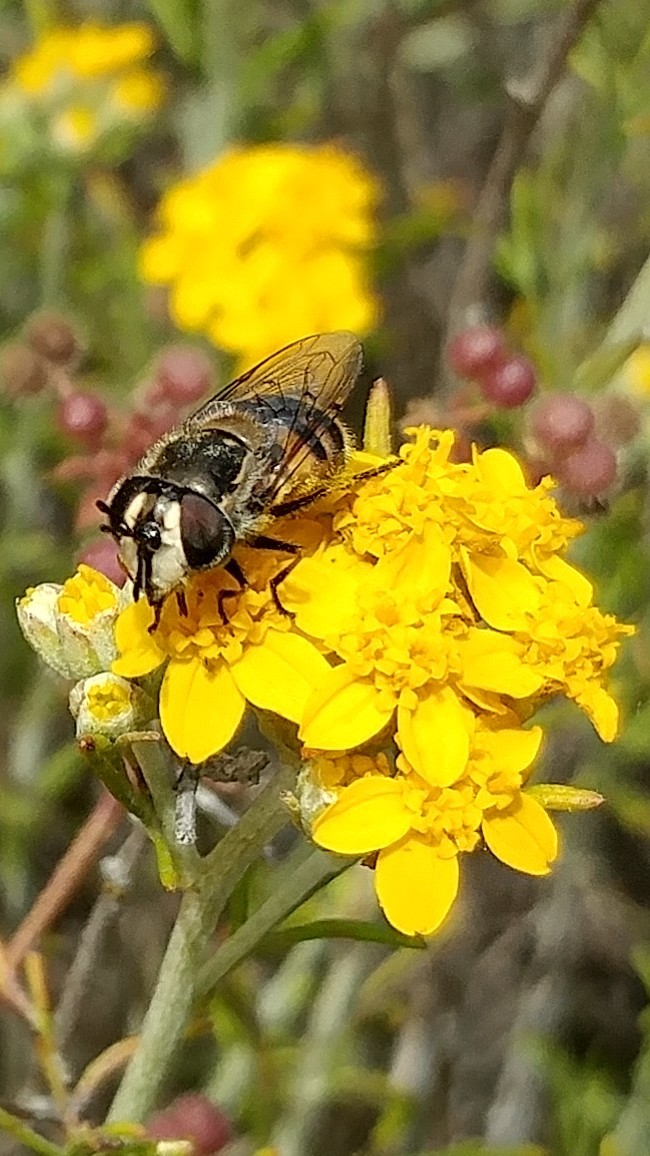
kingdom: Animalia
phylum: Arthropoda
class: Insecta
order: Diptera
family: Syrphidae
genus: Copestylum
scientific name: Copestylum lentum
